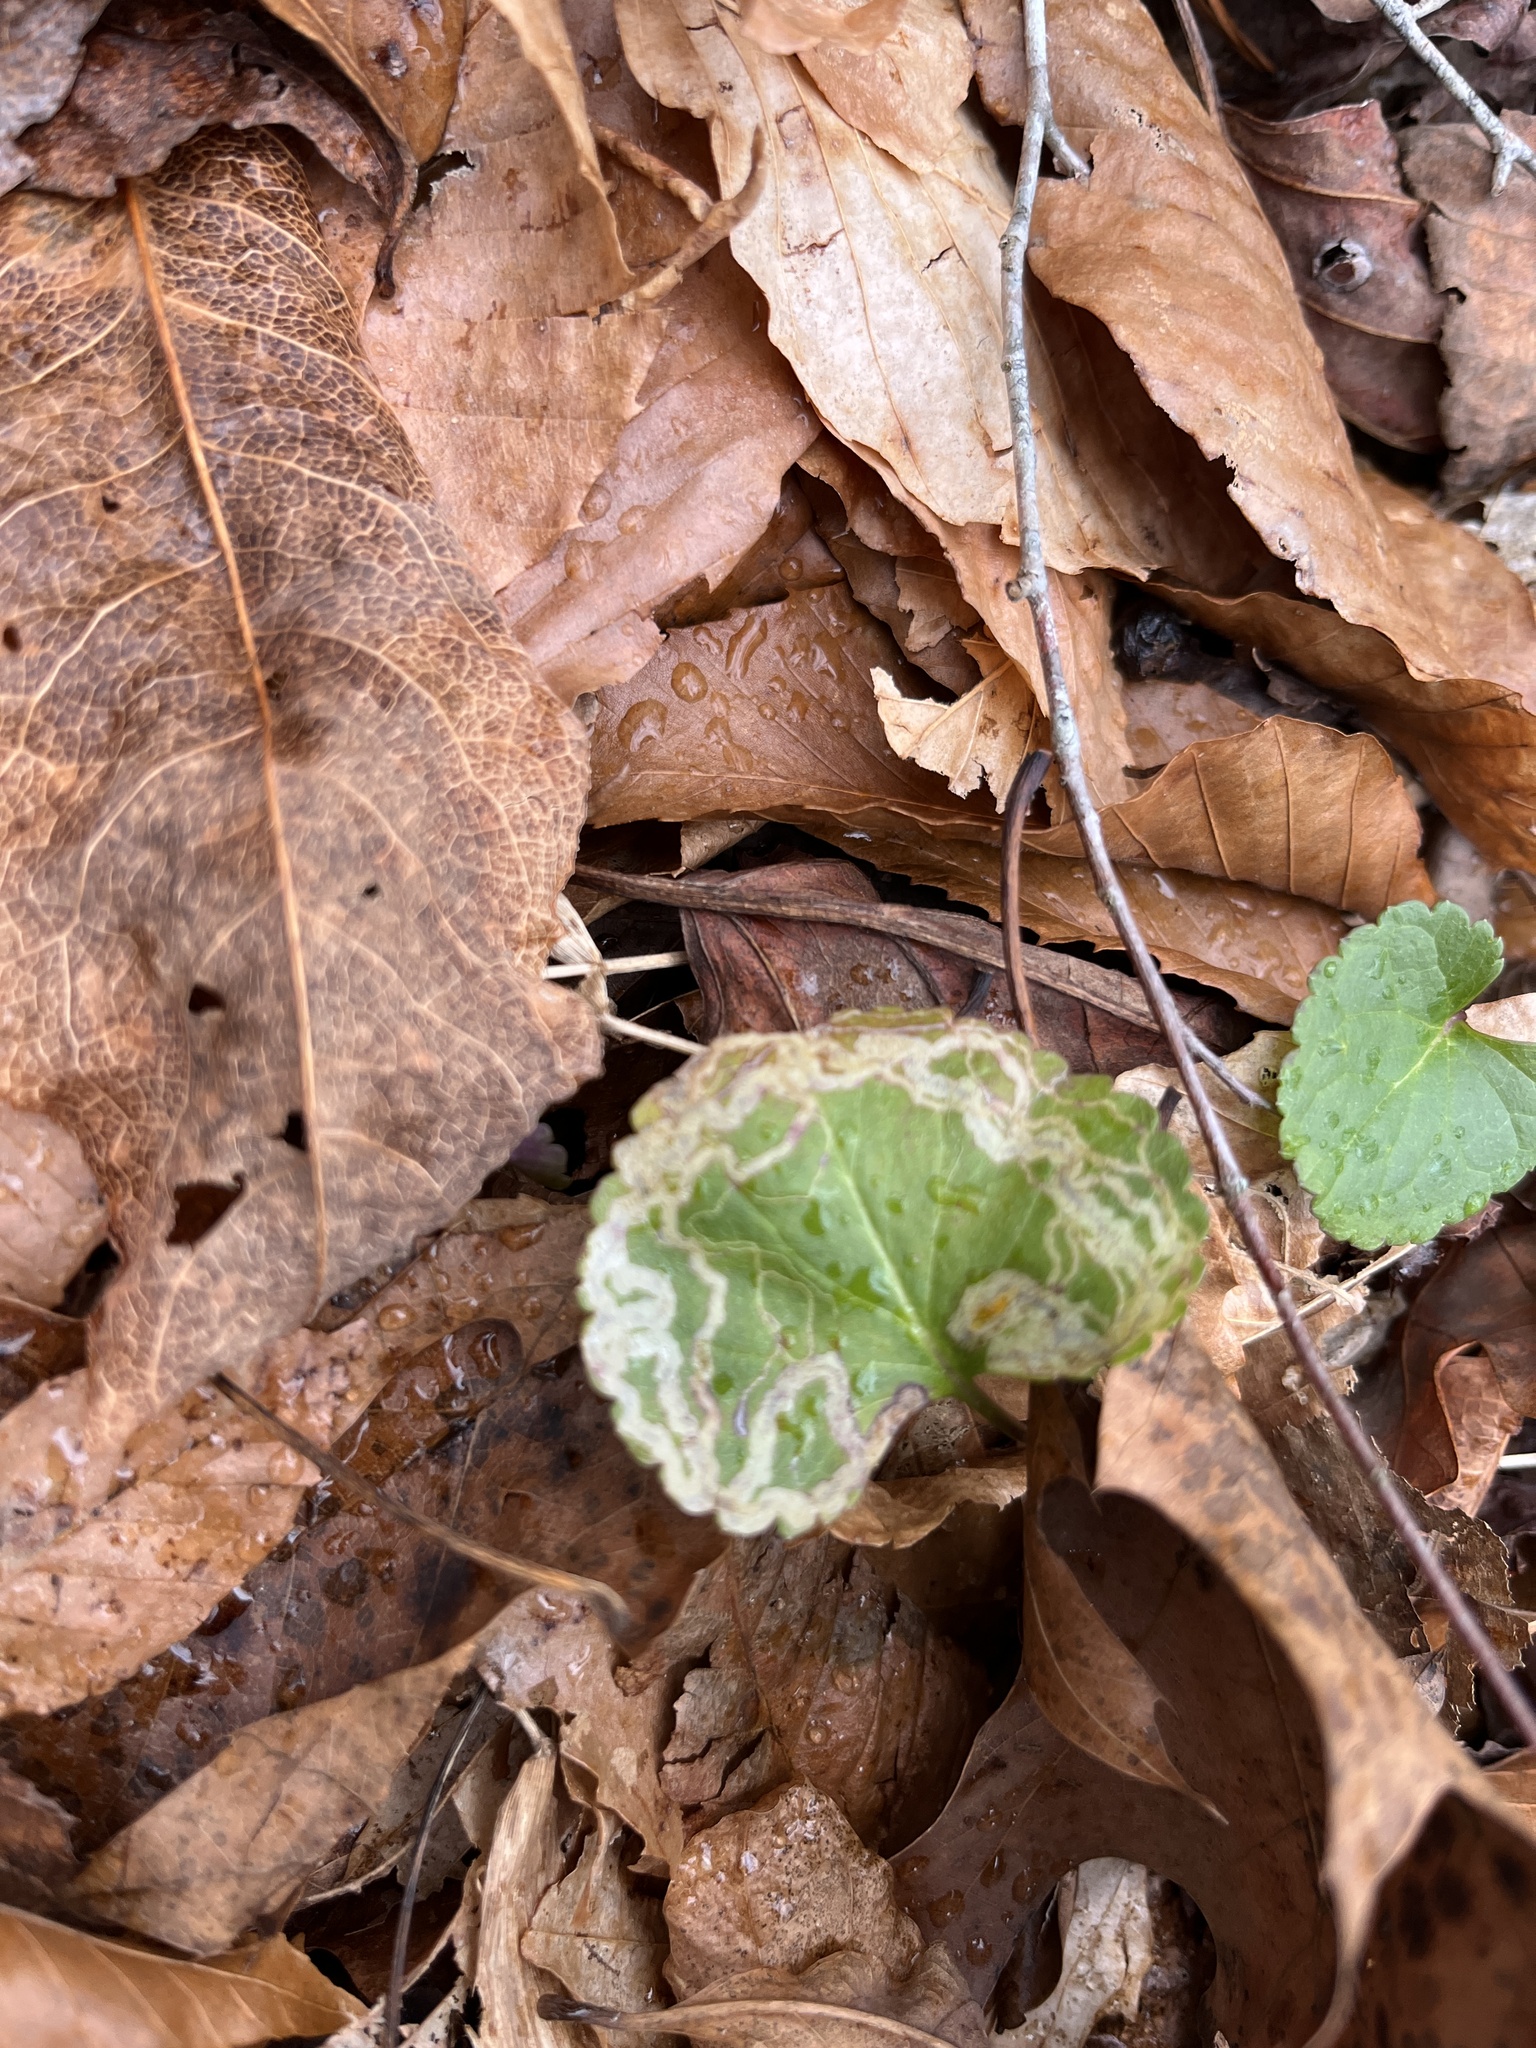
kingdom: Animalia
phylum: Arthropoda
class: Insecta
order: Lepidoptera
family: Gracillariidae
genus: Phyllocnistis
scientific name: Phyllocnistis insignis
